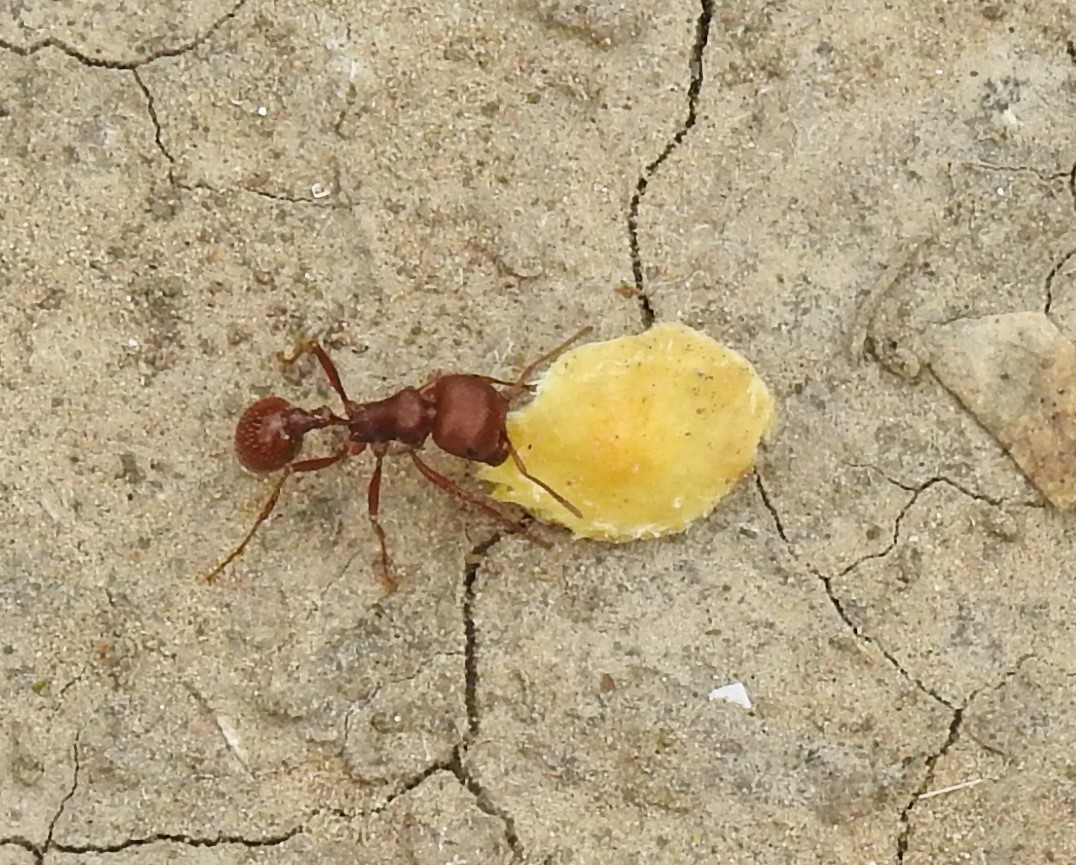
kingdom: Animalia
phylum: Arthropoda
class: Insecta
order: Hymenoptera
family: Formicidae
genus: Pogonomyrmex
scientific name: Pogonomyrmex barbatus
